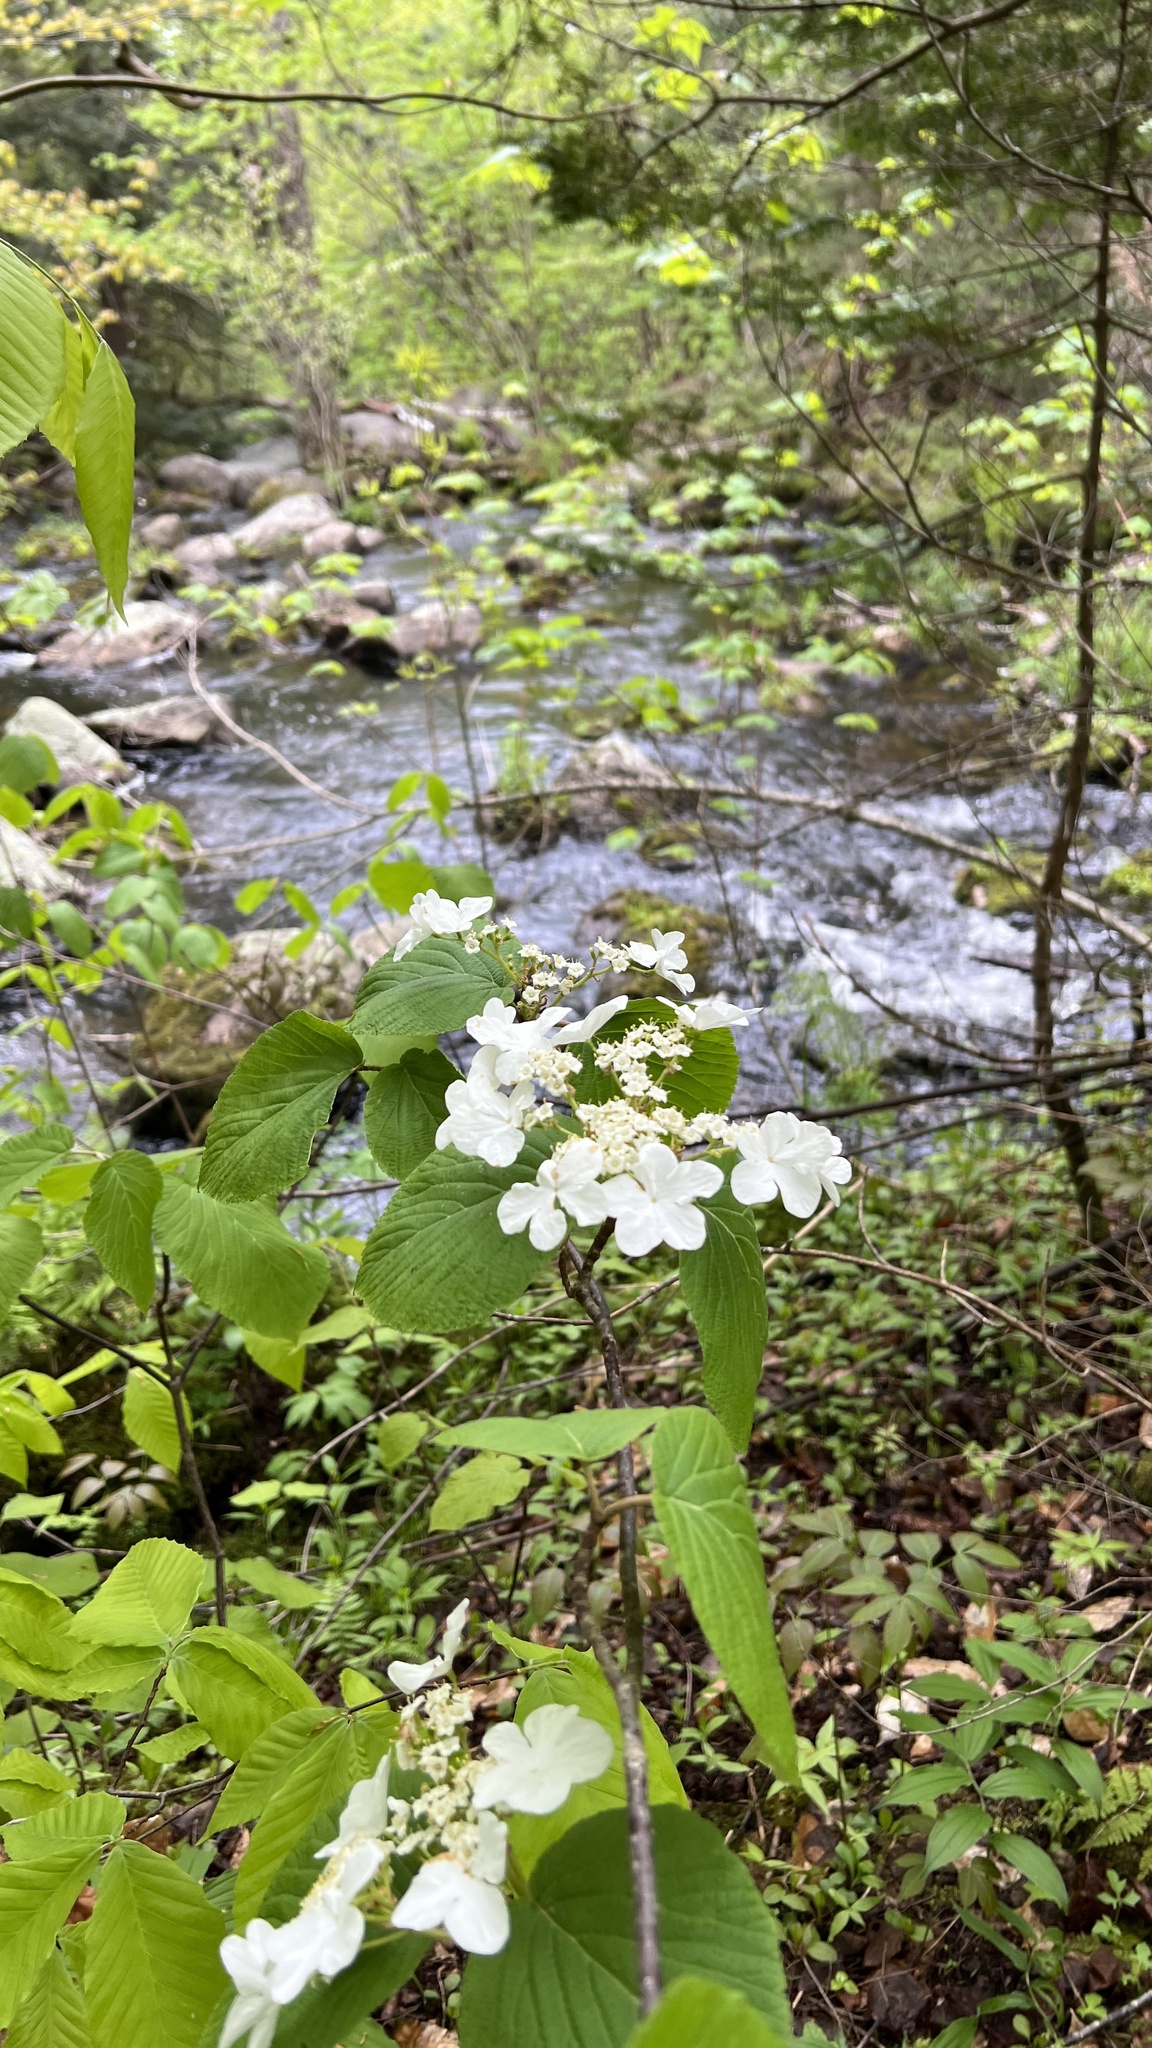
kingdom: Plantae
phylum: Tracheophyta
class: Magnoliopsida
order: Dipsacales
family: Viburnaceae
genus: Viburnum
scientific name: Viburnum lantanoides
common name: Hobblebush
